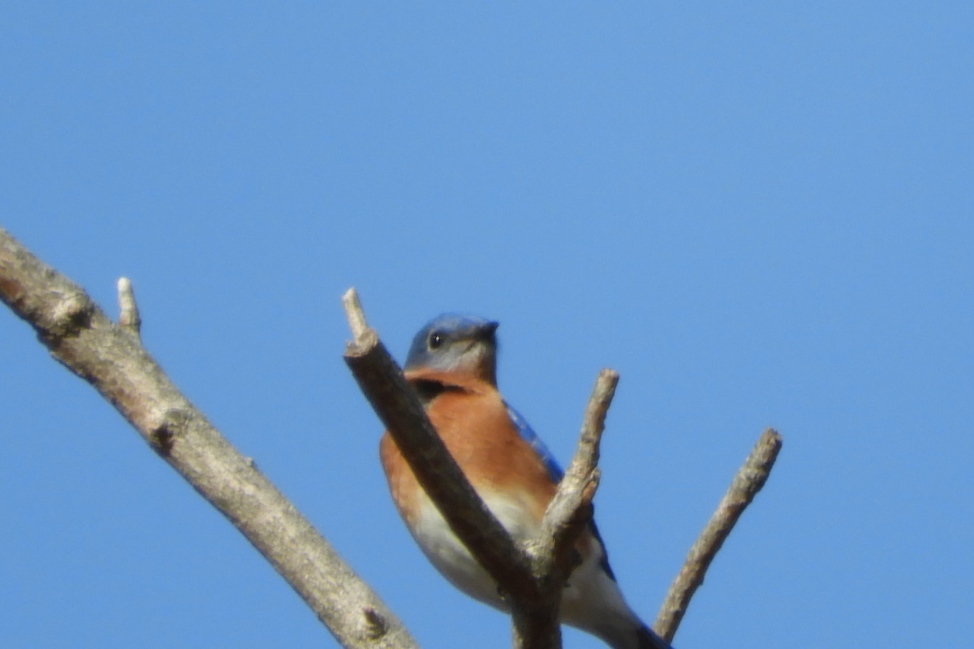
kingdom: Animalia
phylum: Chordata
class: Aves
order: Passeriformes
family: Turdidae
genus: Sialia
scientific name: Sialia sialis
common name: Eastern bluebird
